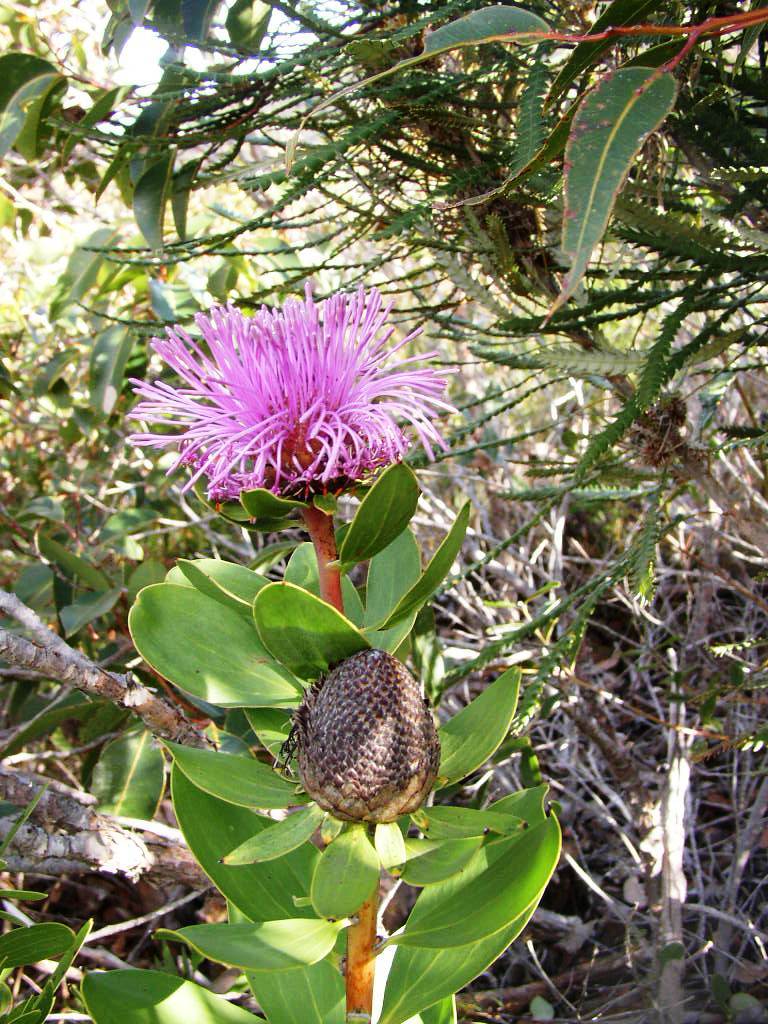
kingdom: Plantae
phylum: Tracheophyta
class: Magnoliopsida
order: Proteales
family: Proteaceae
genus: Isopogon
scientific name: Isopogon cuneatus
